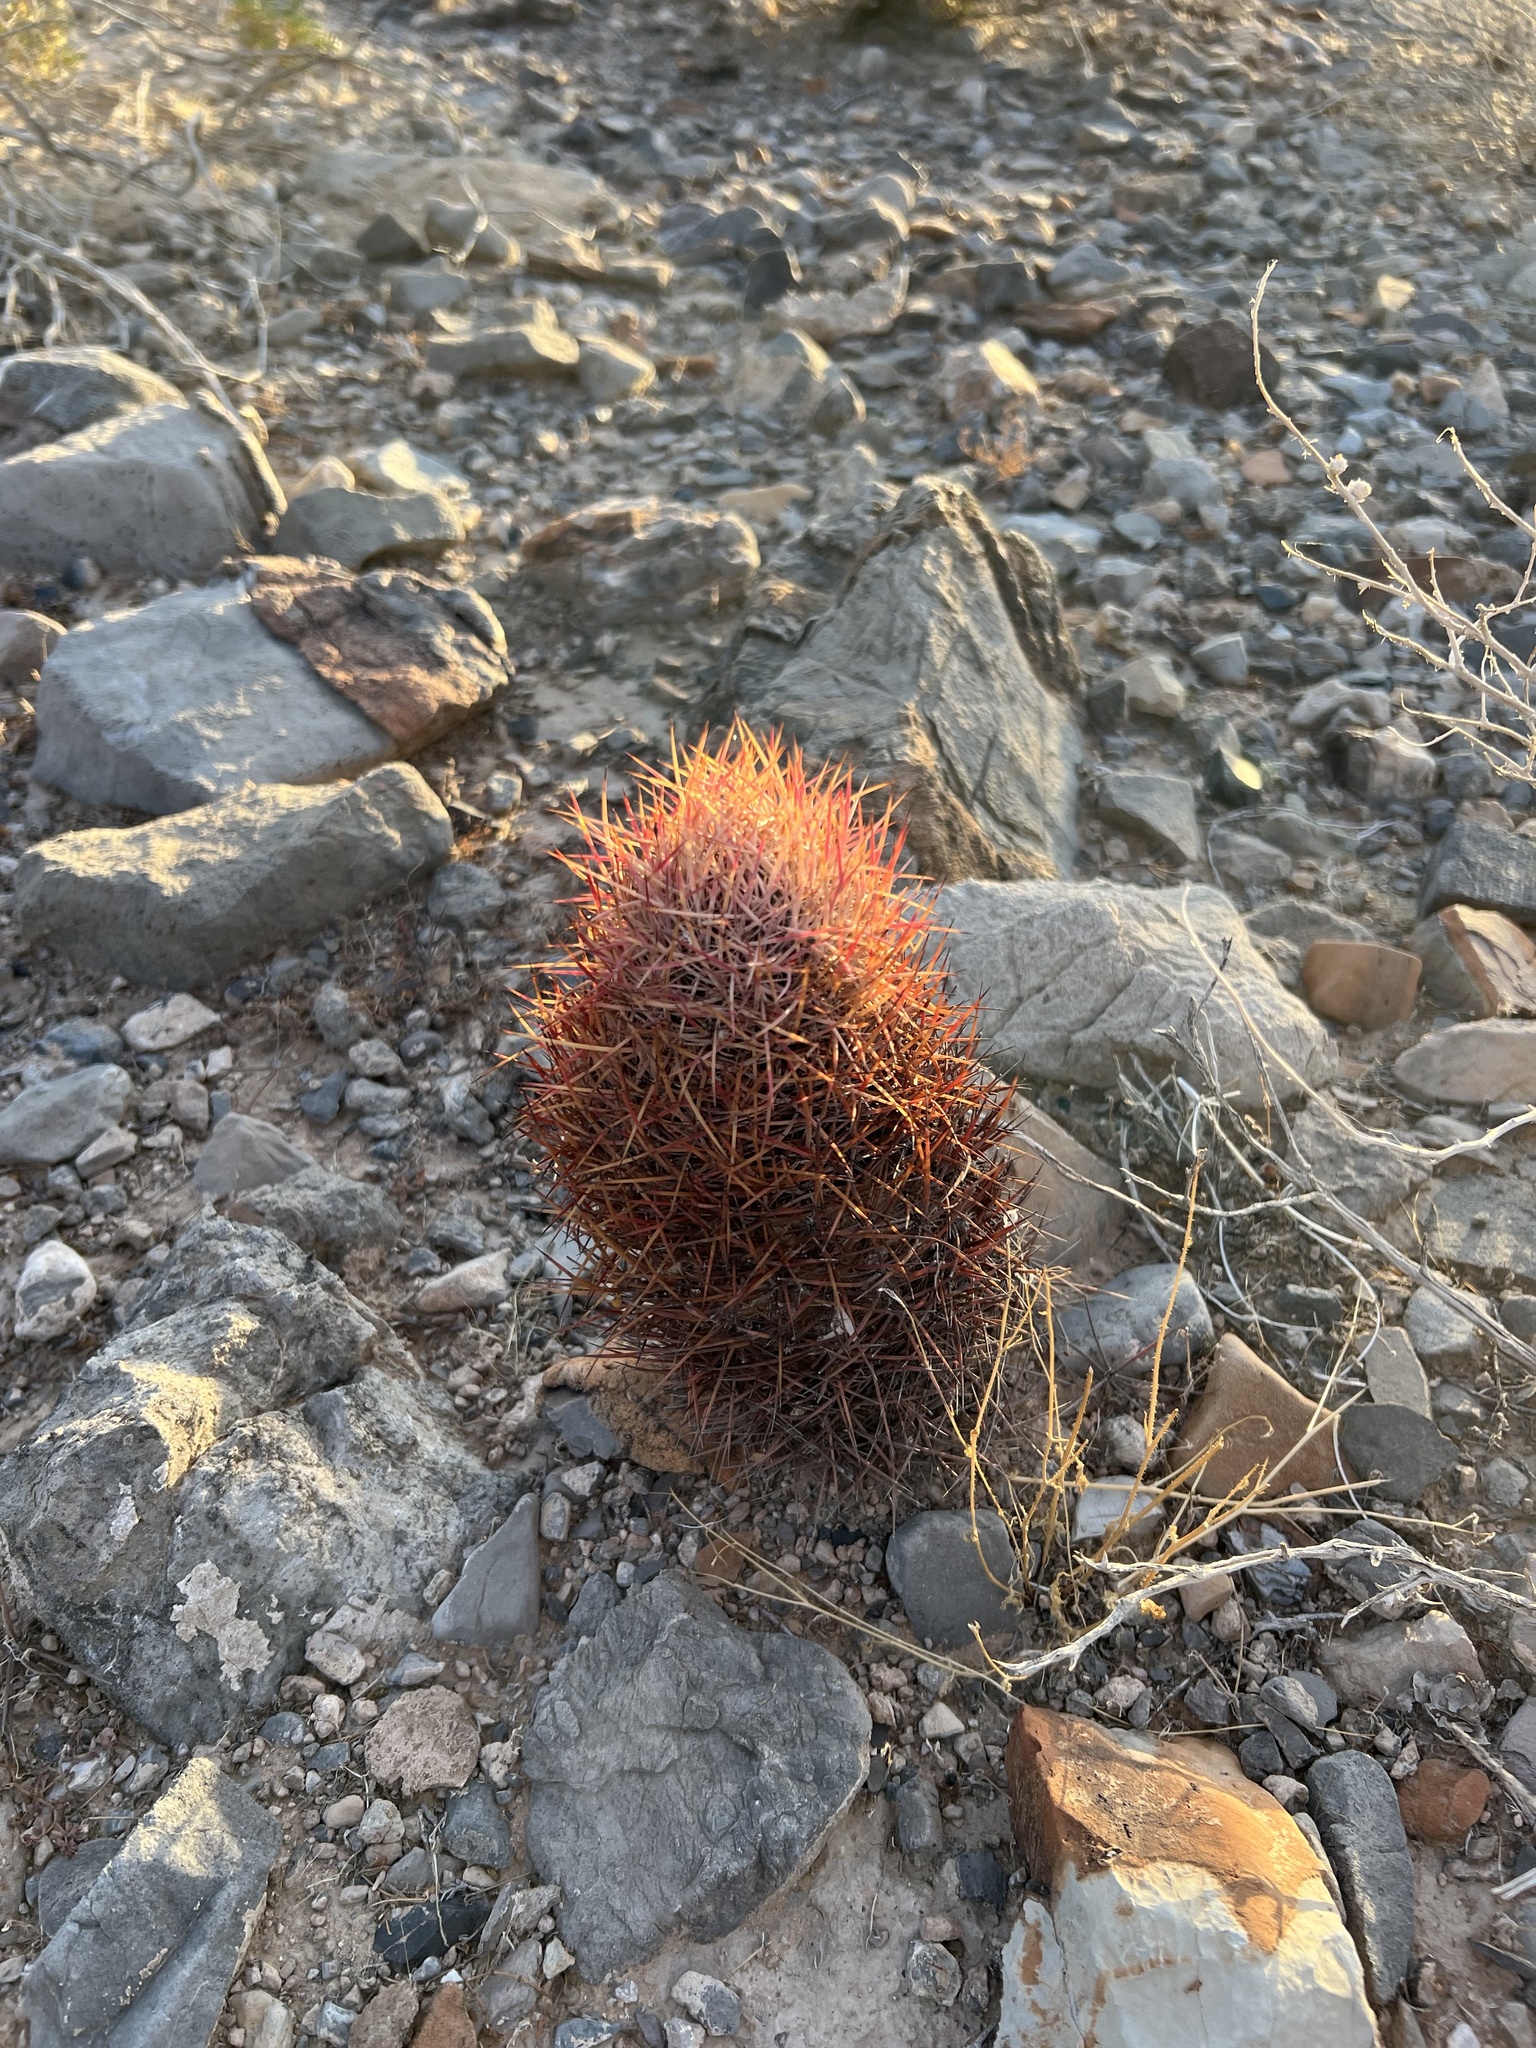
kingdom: Plantae
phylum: Tracheophyta
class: Magnoliopsida
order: Caryophyllales
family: Cactaceae
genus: Sclerocactus
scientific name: Sclerocactus johnsonii
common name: Eight-spine fishhook cactus
